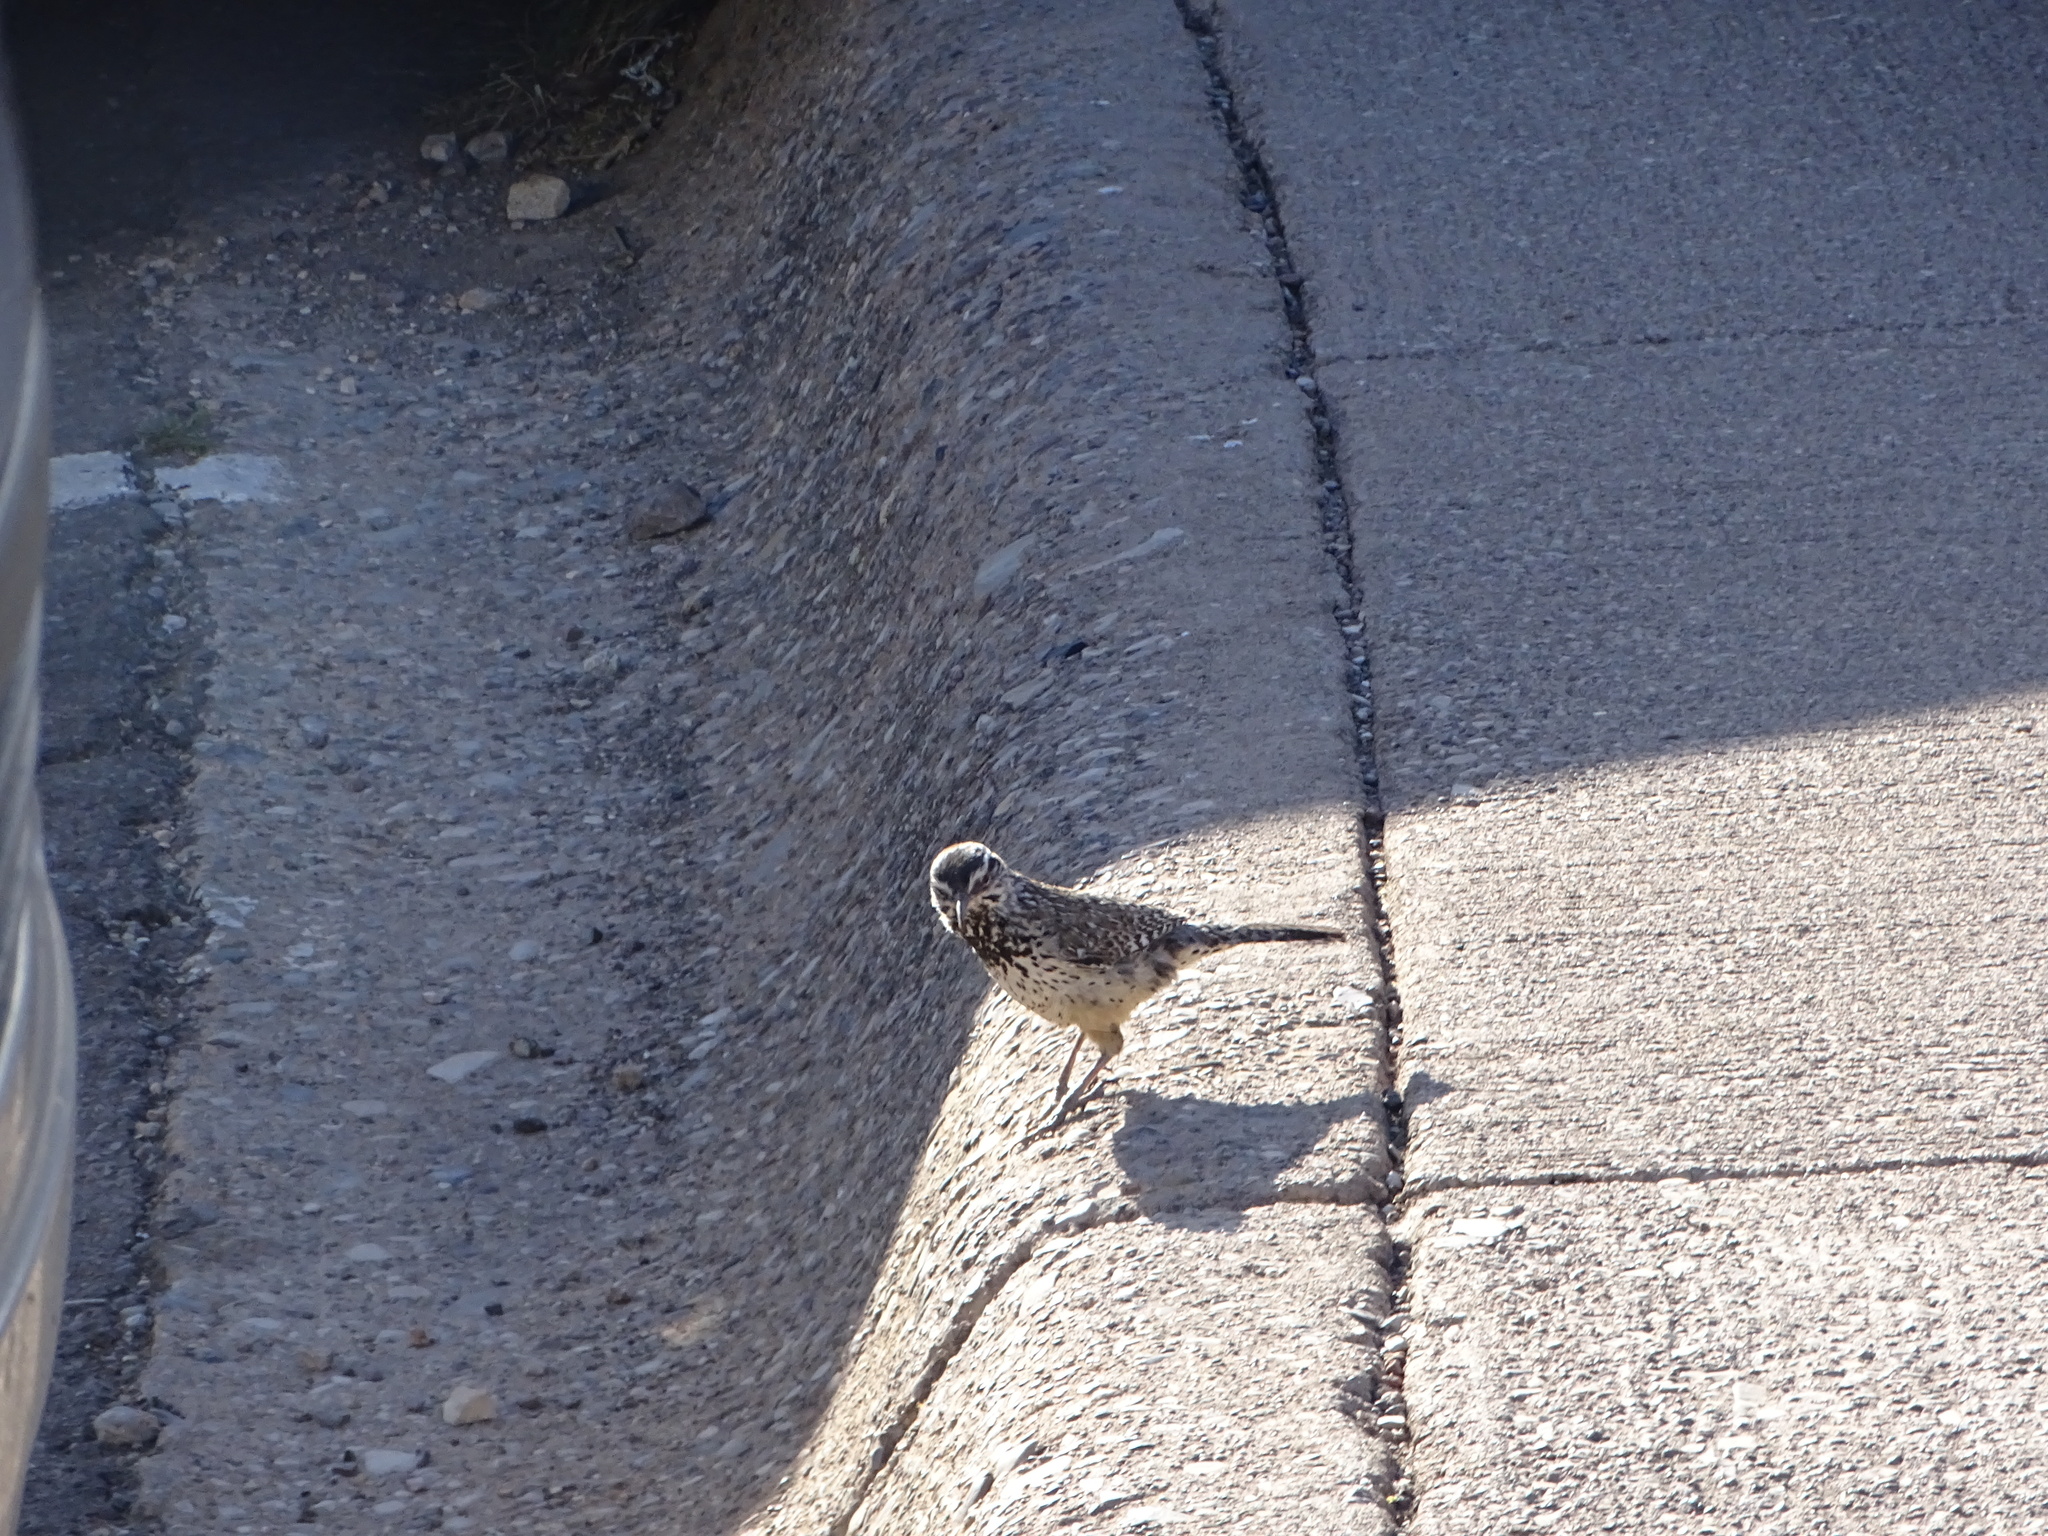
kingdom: Animalia
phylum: Chordata
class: Aves
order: Passeriformes
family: Troglodytidae
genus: Campylorhynchus
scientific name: Campylorhynchus brunneicapillus
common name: Cactus wren
